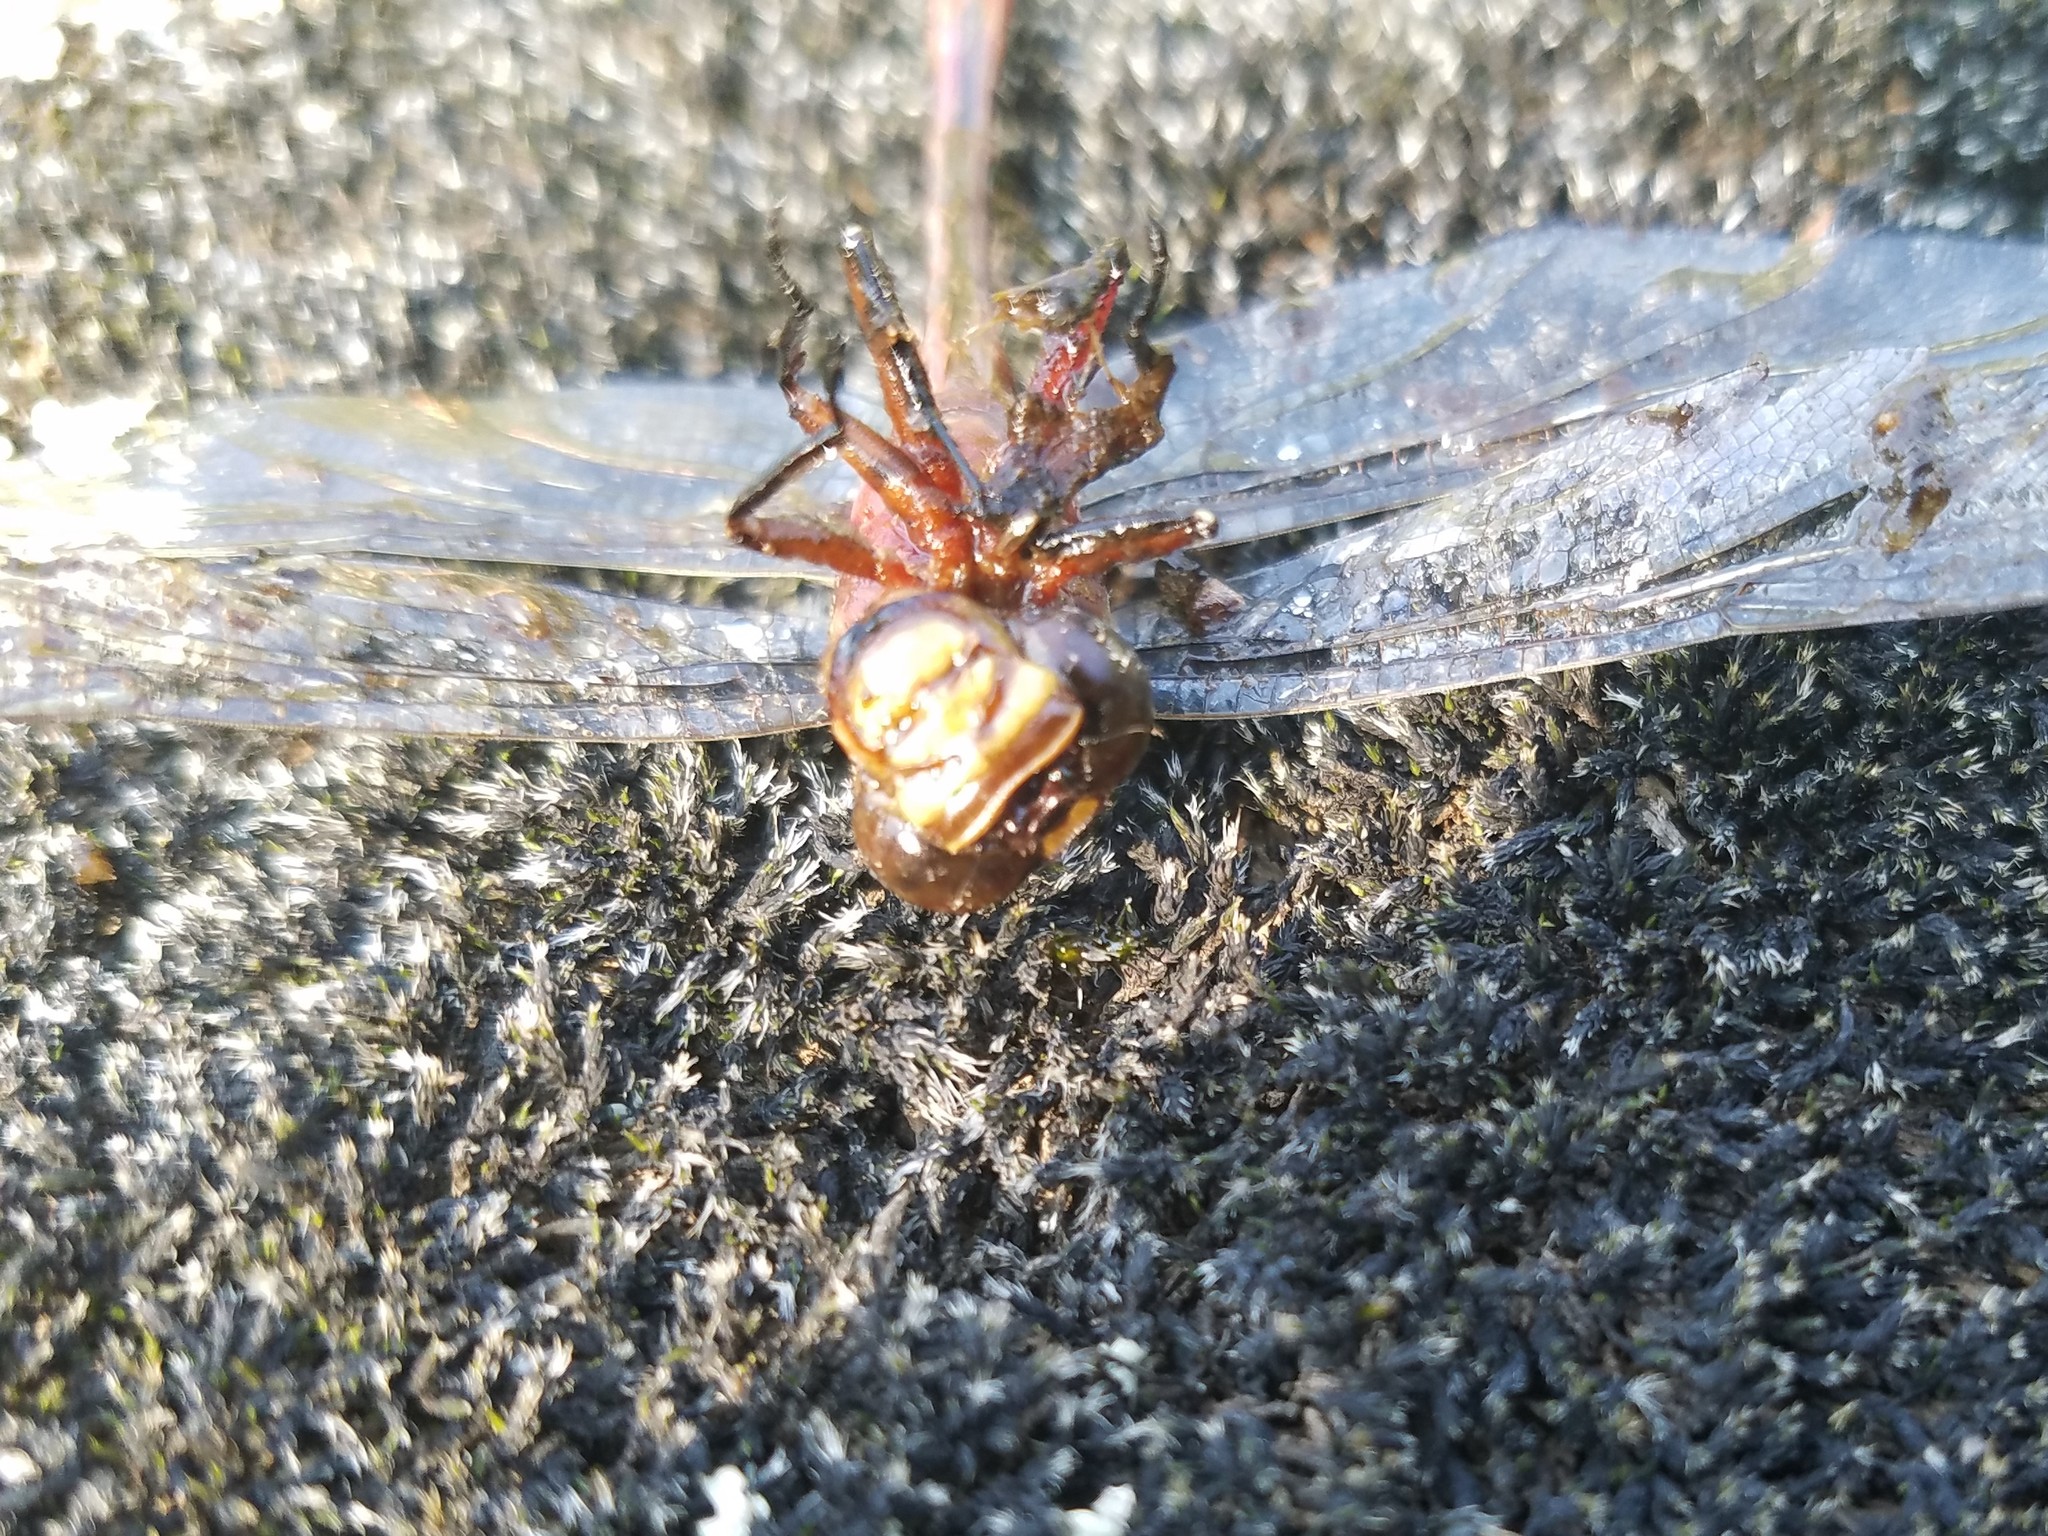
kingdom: Animalia
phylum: Arthropoda
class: Insecta
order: Odonata
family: Gomphidae
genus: Aphylla
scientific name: Aphylla williamsoni
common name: Two-striped forceptail
